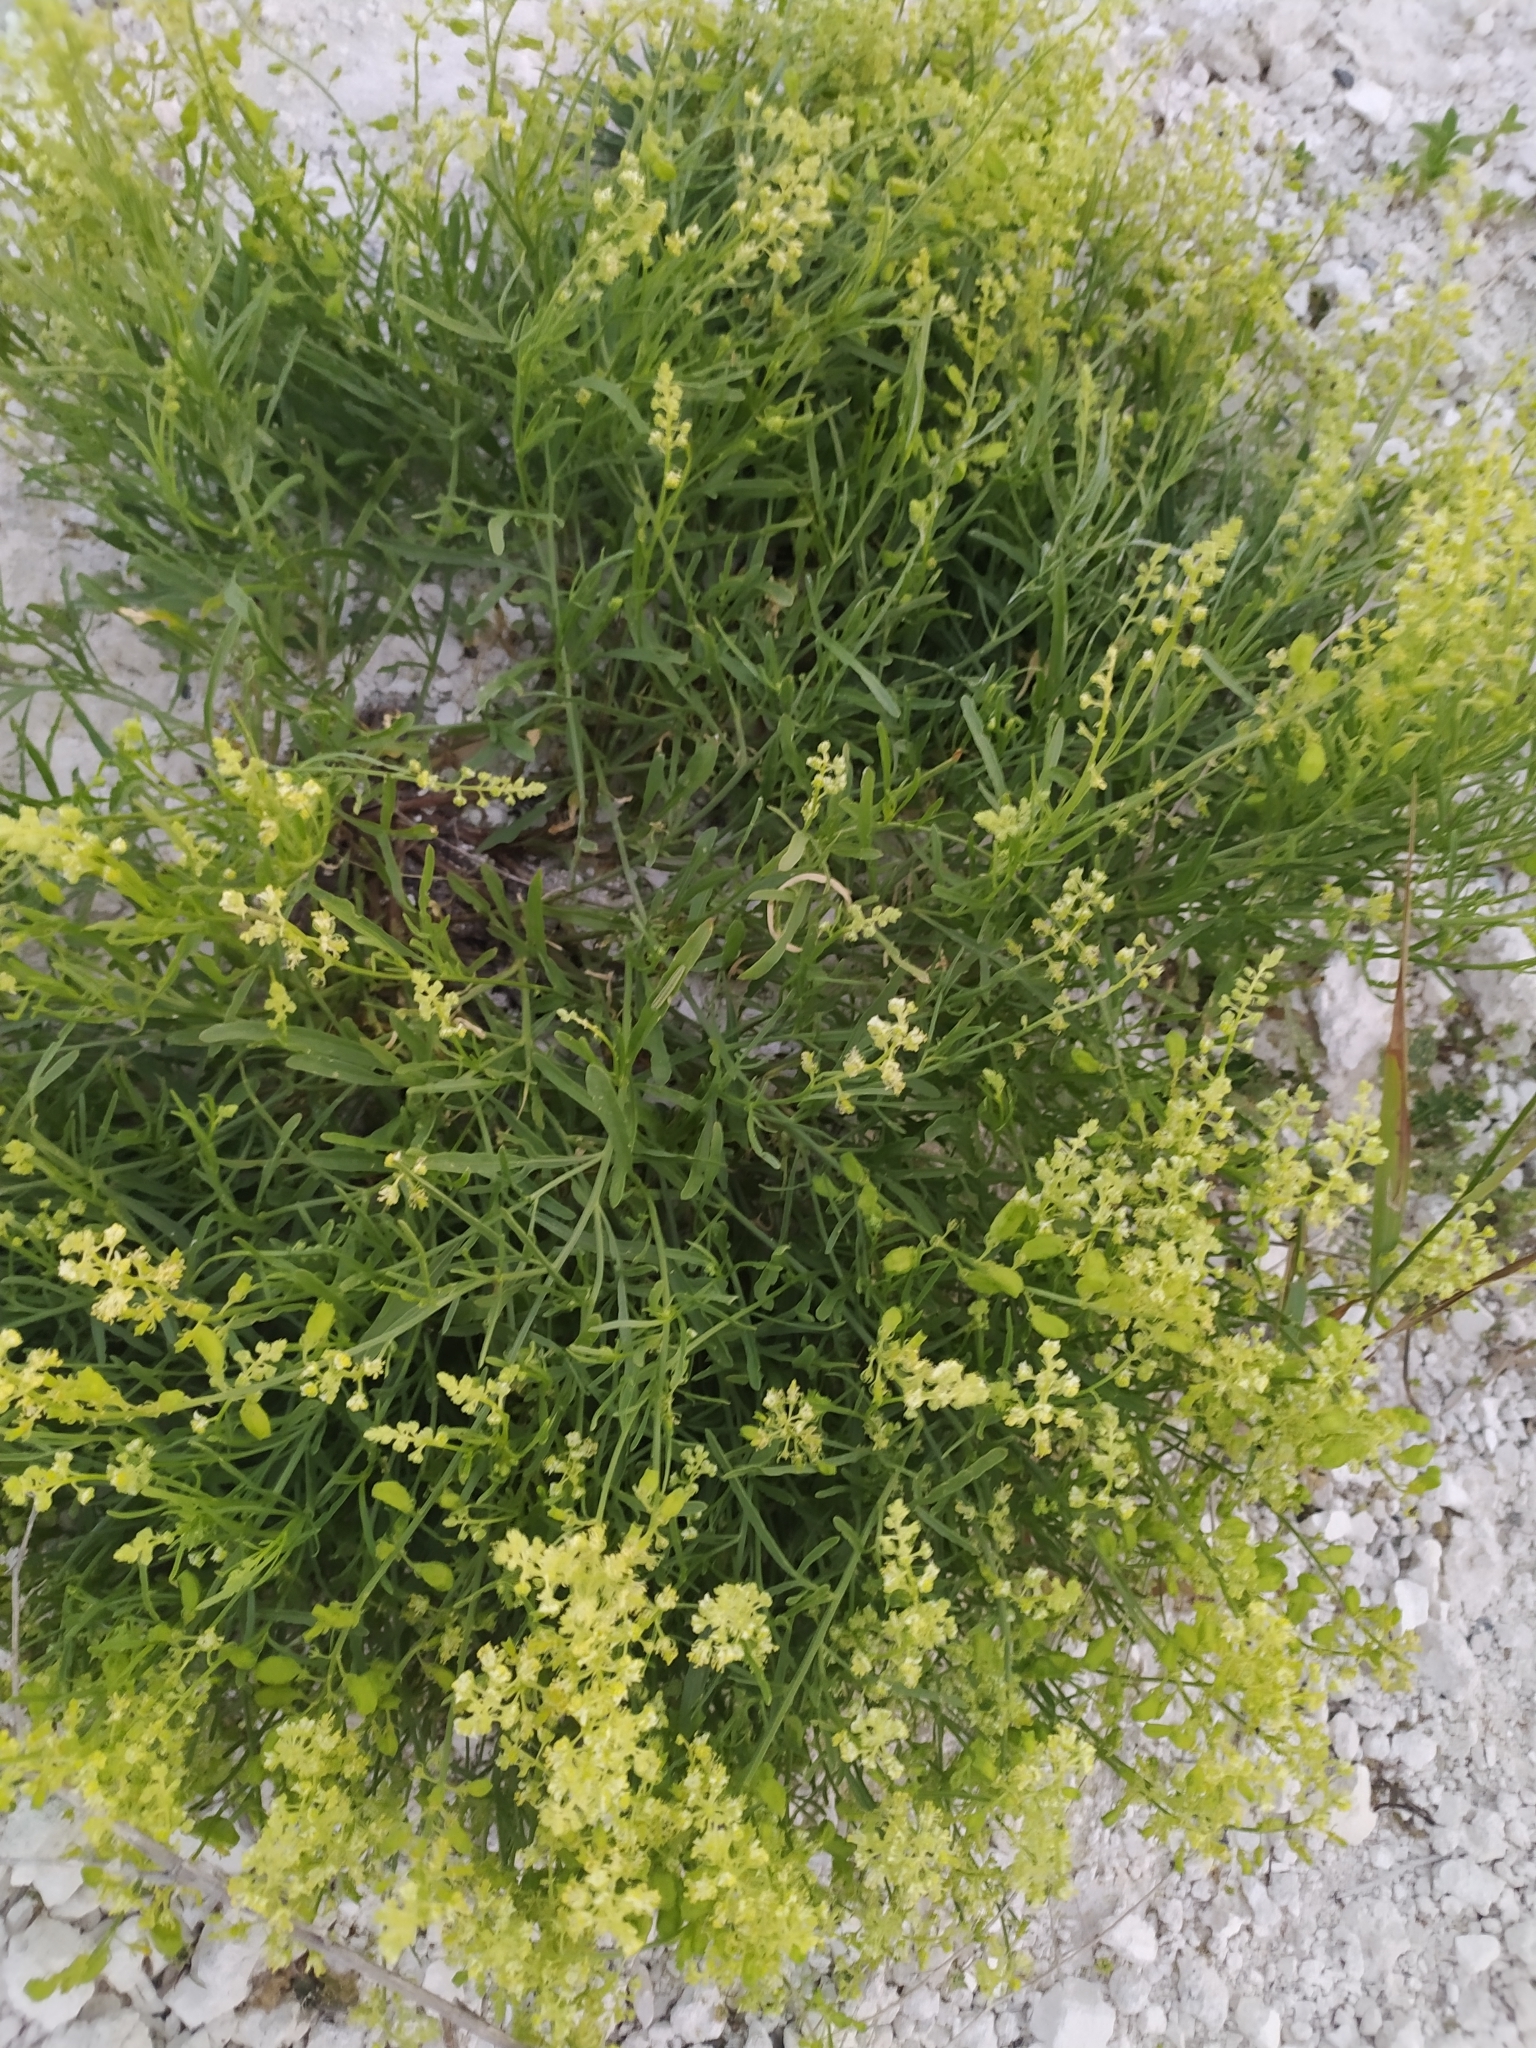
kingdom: Plantae
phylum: Tracheophyta
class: Magnoliopsida
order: Brassicales
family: Resedaceae
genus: Reseda
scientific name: Reseda lutea
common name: Wild mignonette
